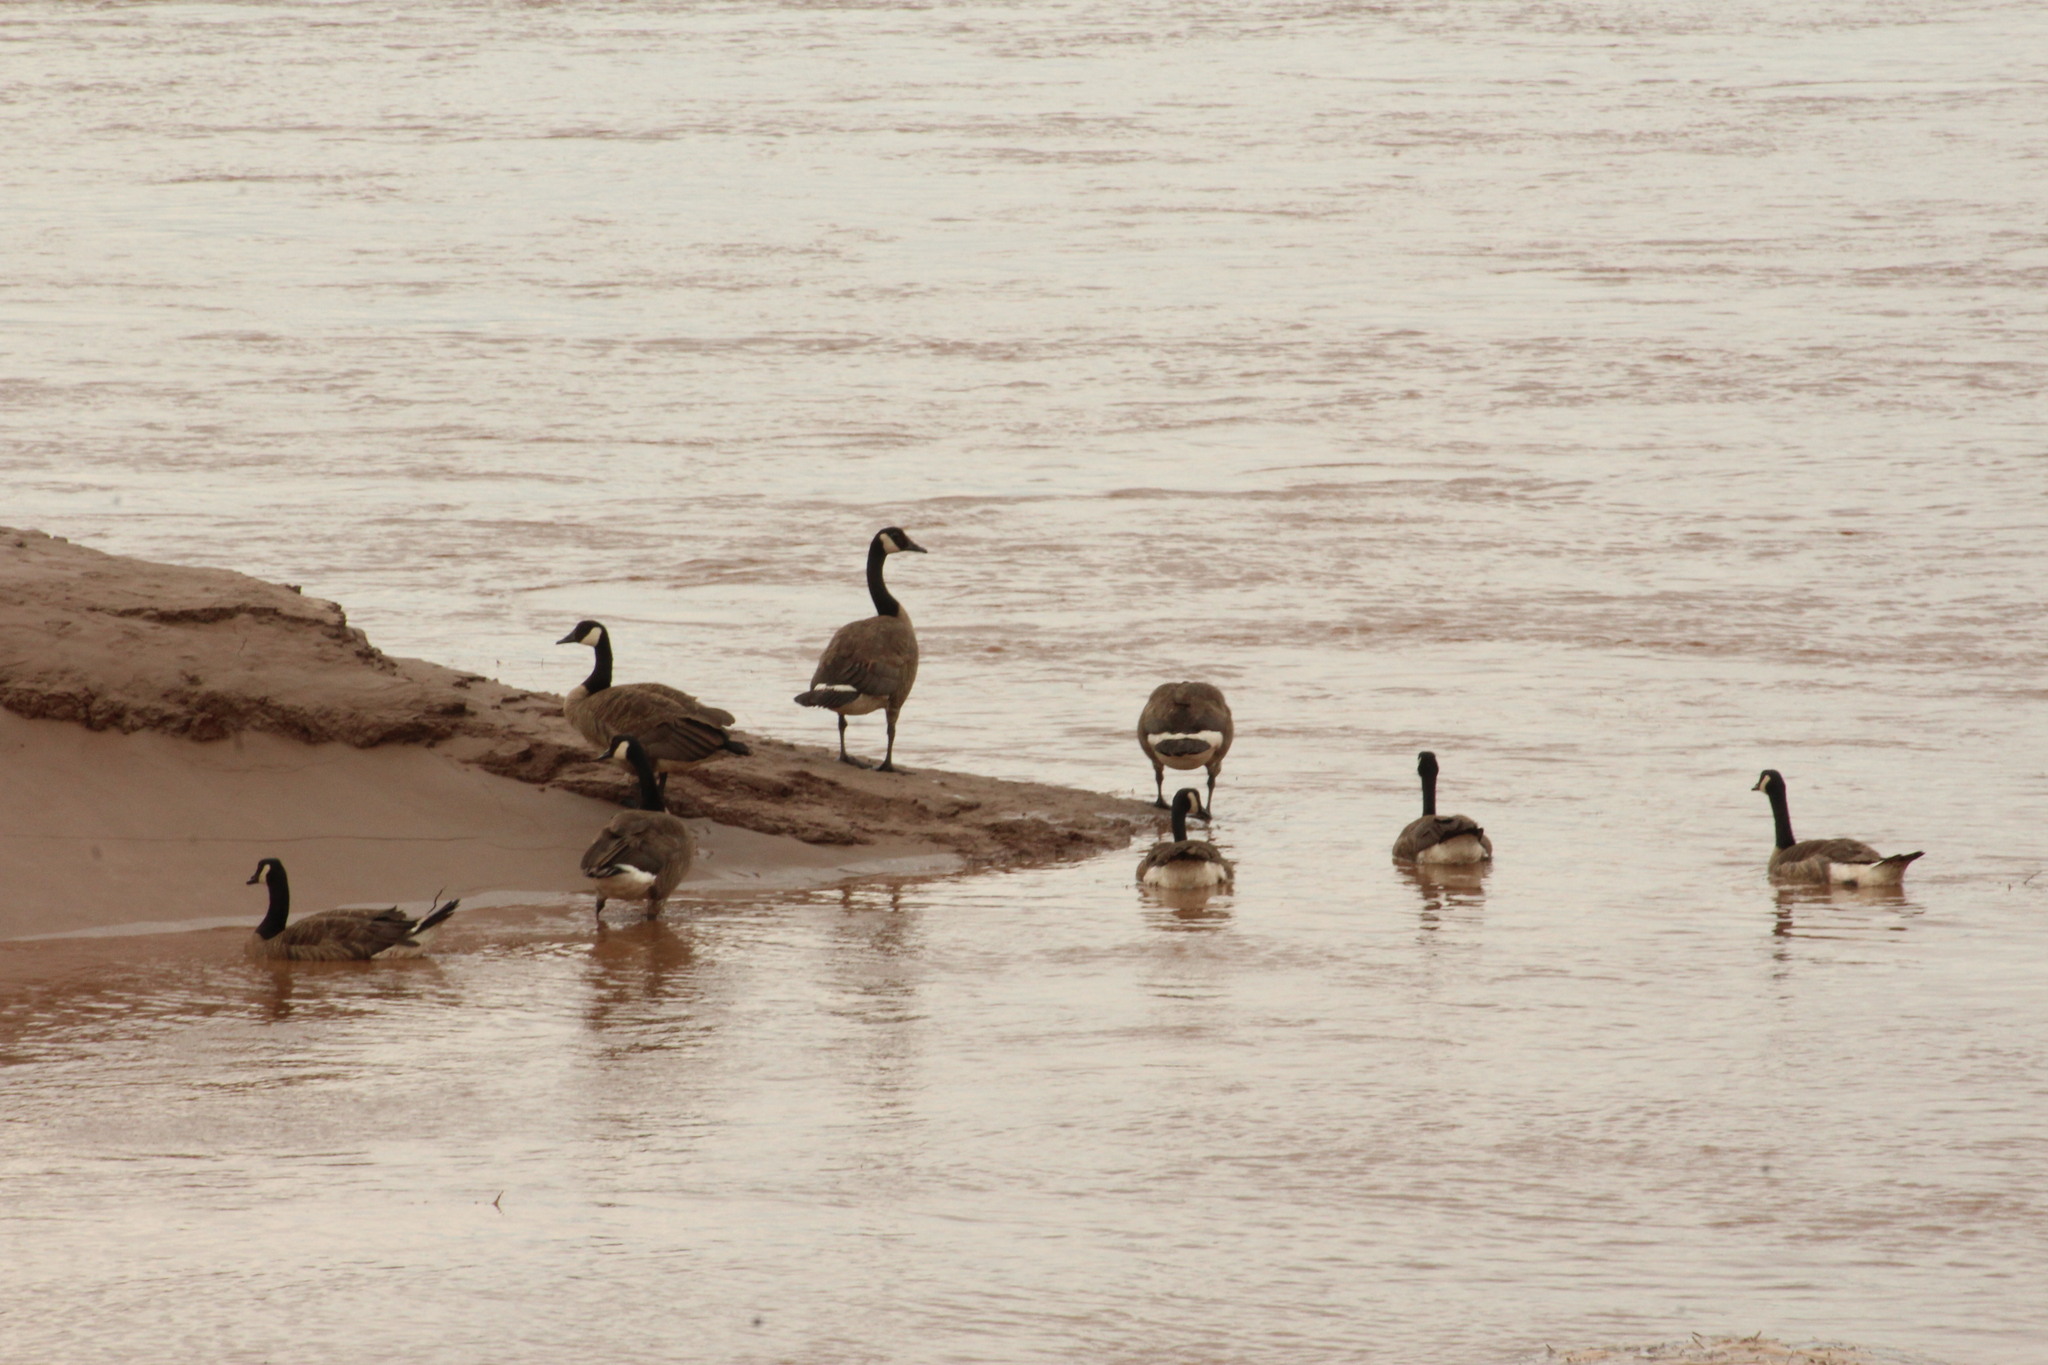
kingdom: Animalia
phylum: Chordata
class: Aves
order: Anseriformes
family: Anatidae
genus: Branta
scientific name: Branta canadensis
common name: Canada goose
